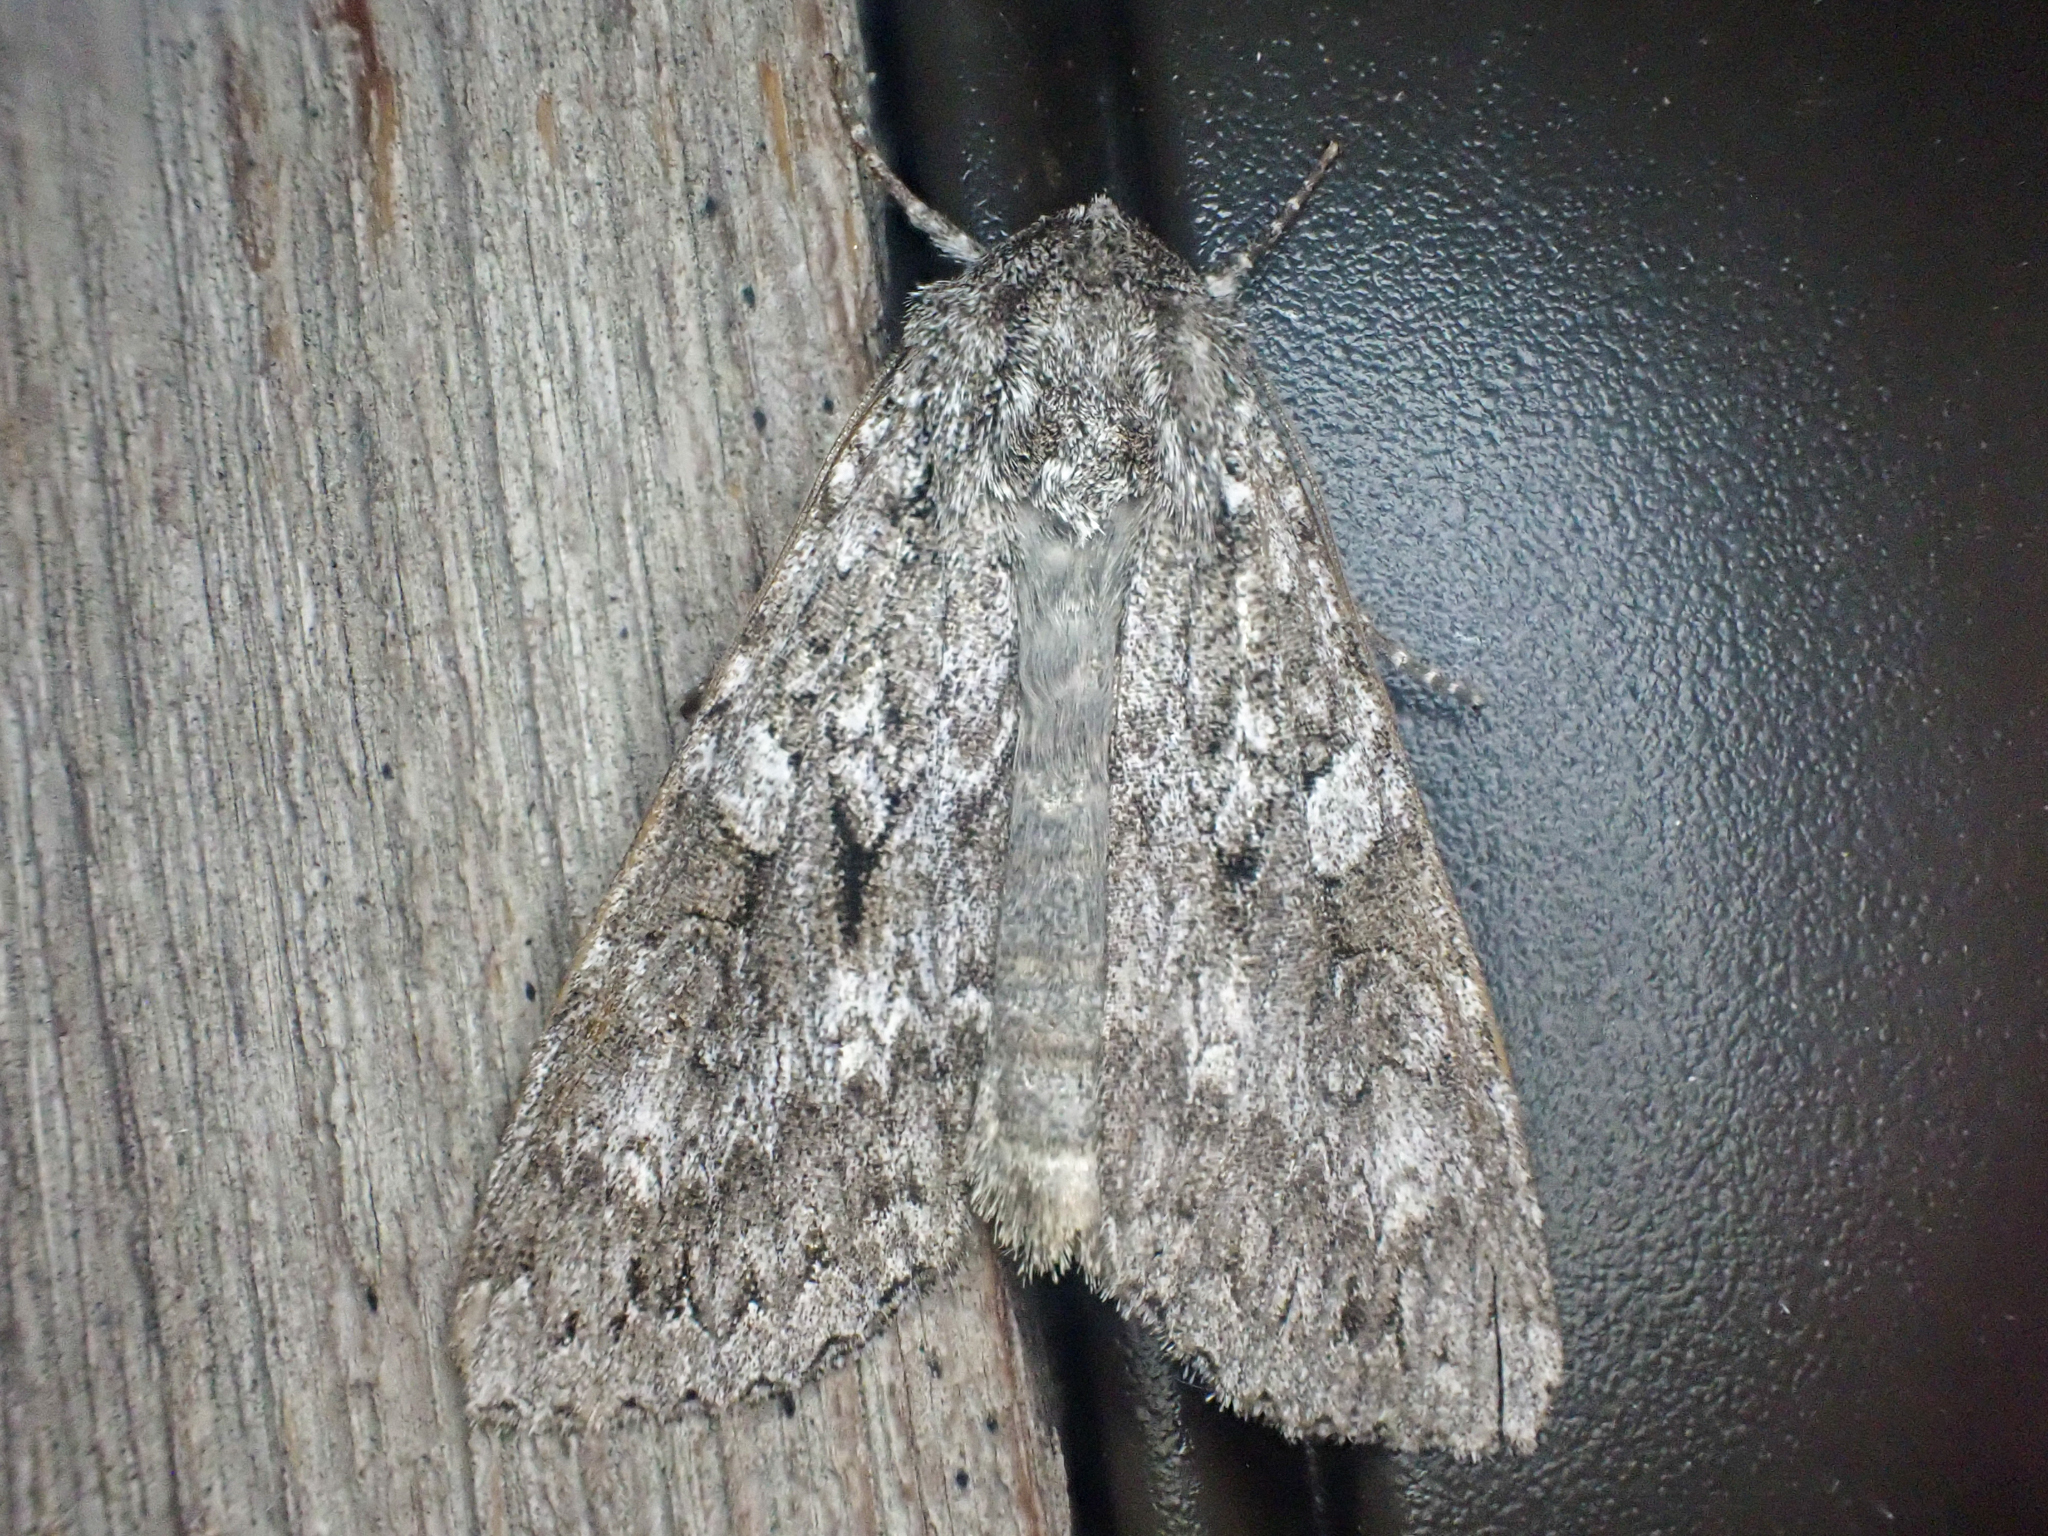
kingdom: Animalia
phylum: Arthropoda
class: Insecta
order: Lepidoptera
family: Noctuidae
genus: Eurois
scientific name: Eurois occulta
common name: Great brocade
